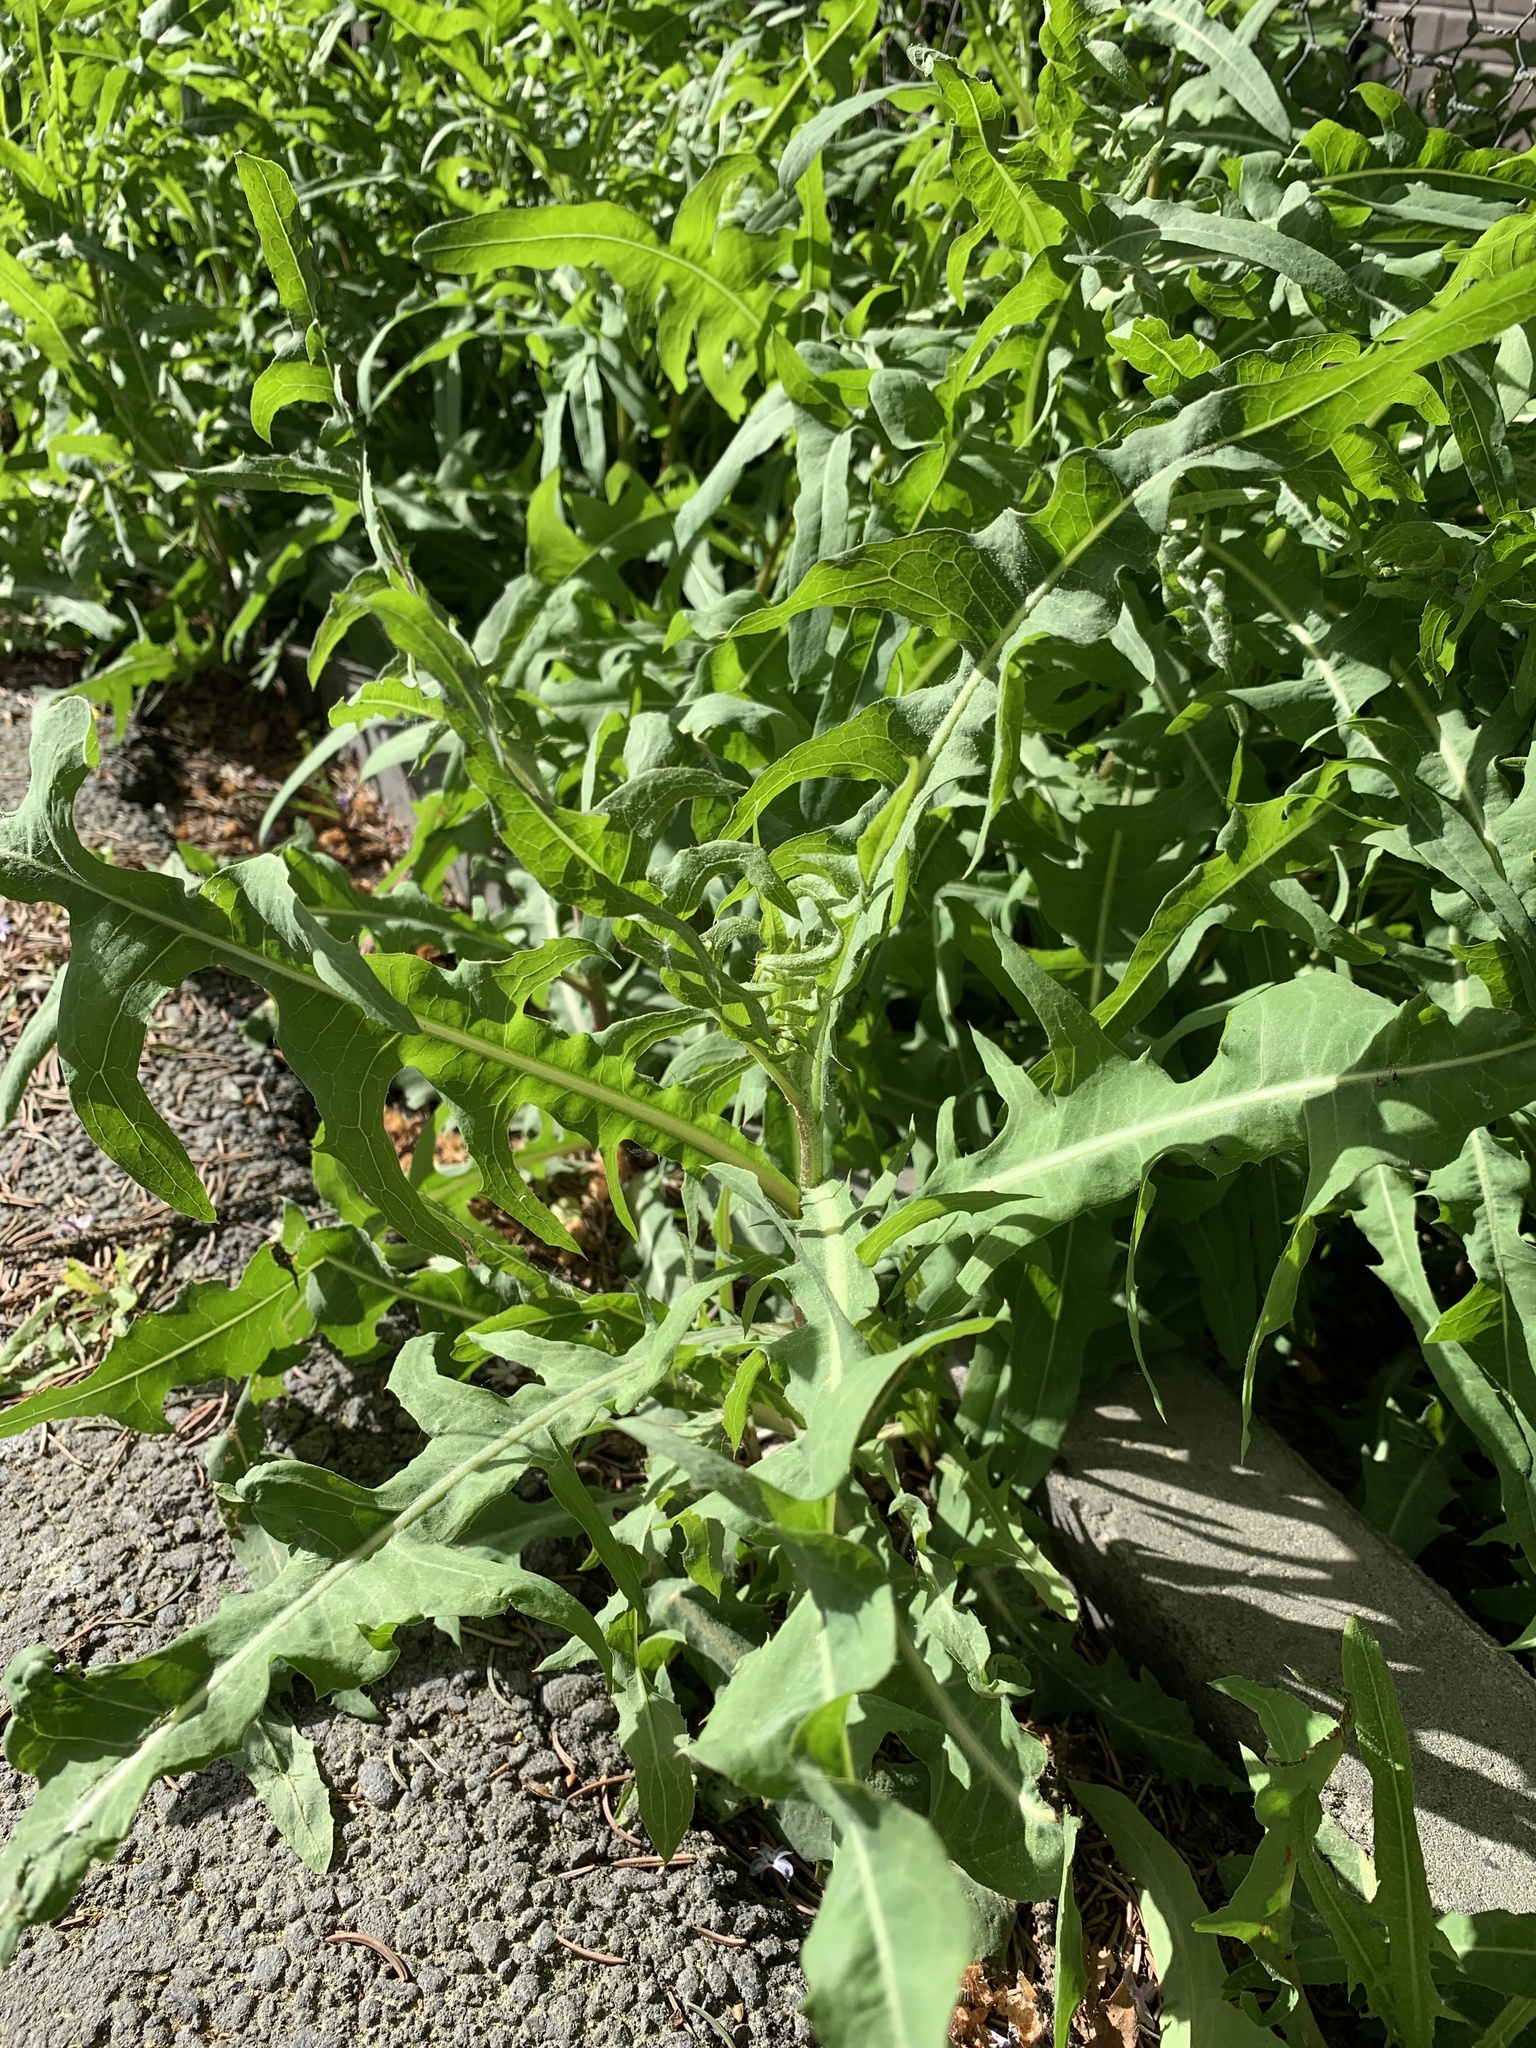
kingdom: Plantae
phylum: Tracheophyta
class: Magnoliopsida
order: Asterales
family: Asteraceae
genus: Lactuca
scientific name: Lactuca serriola
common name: Prickly lettuce
